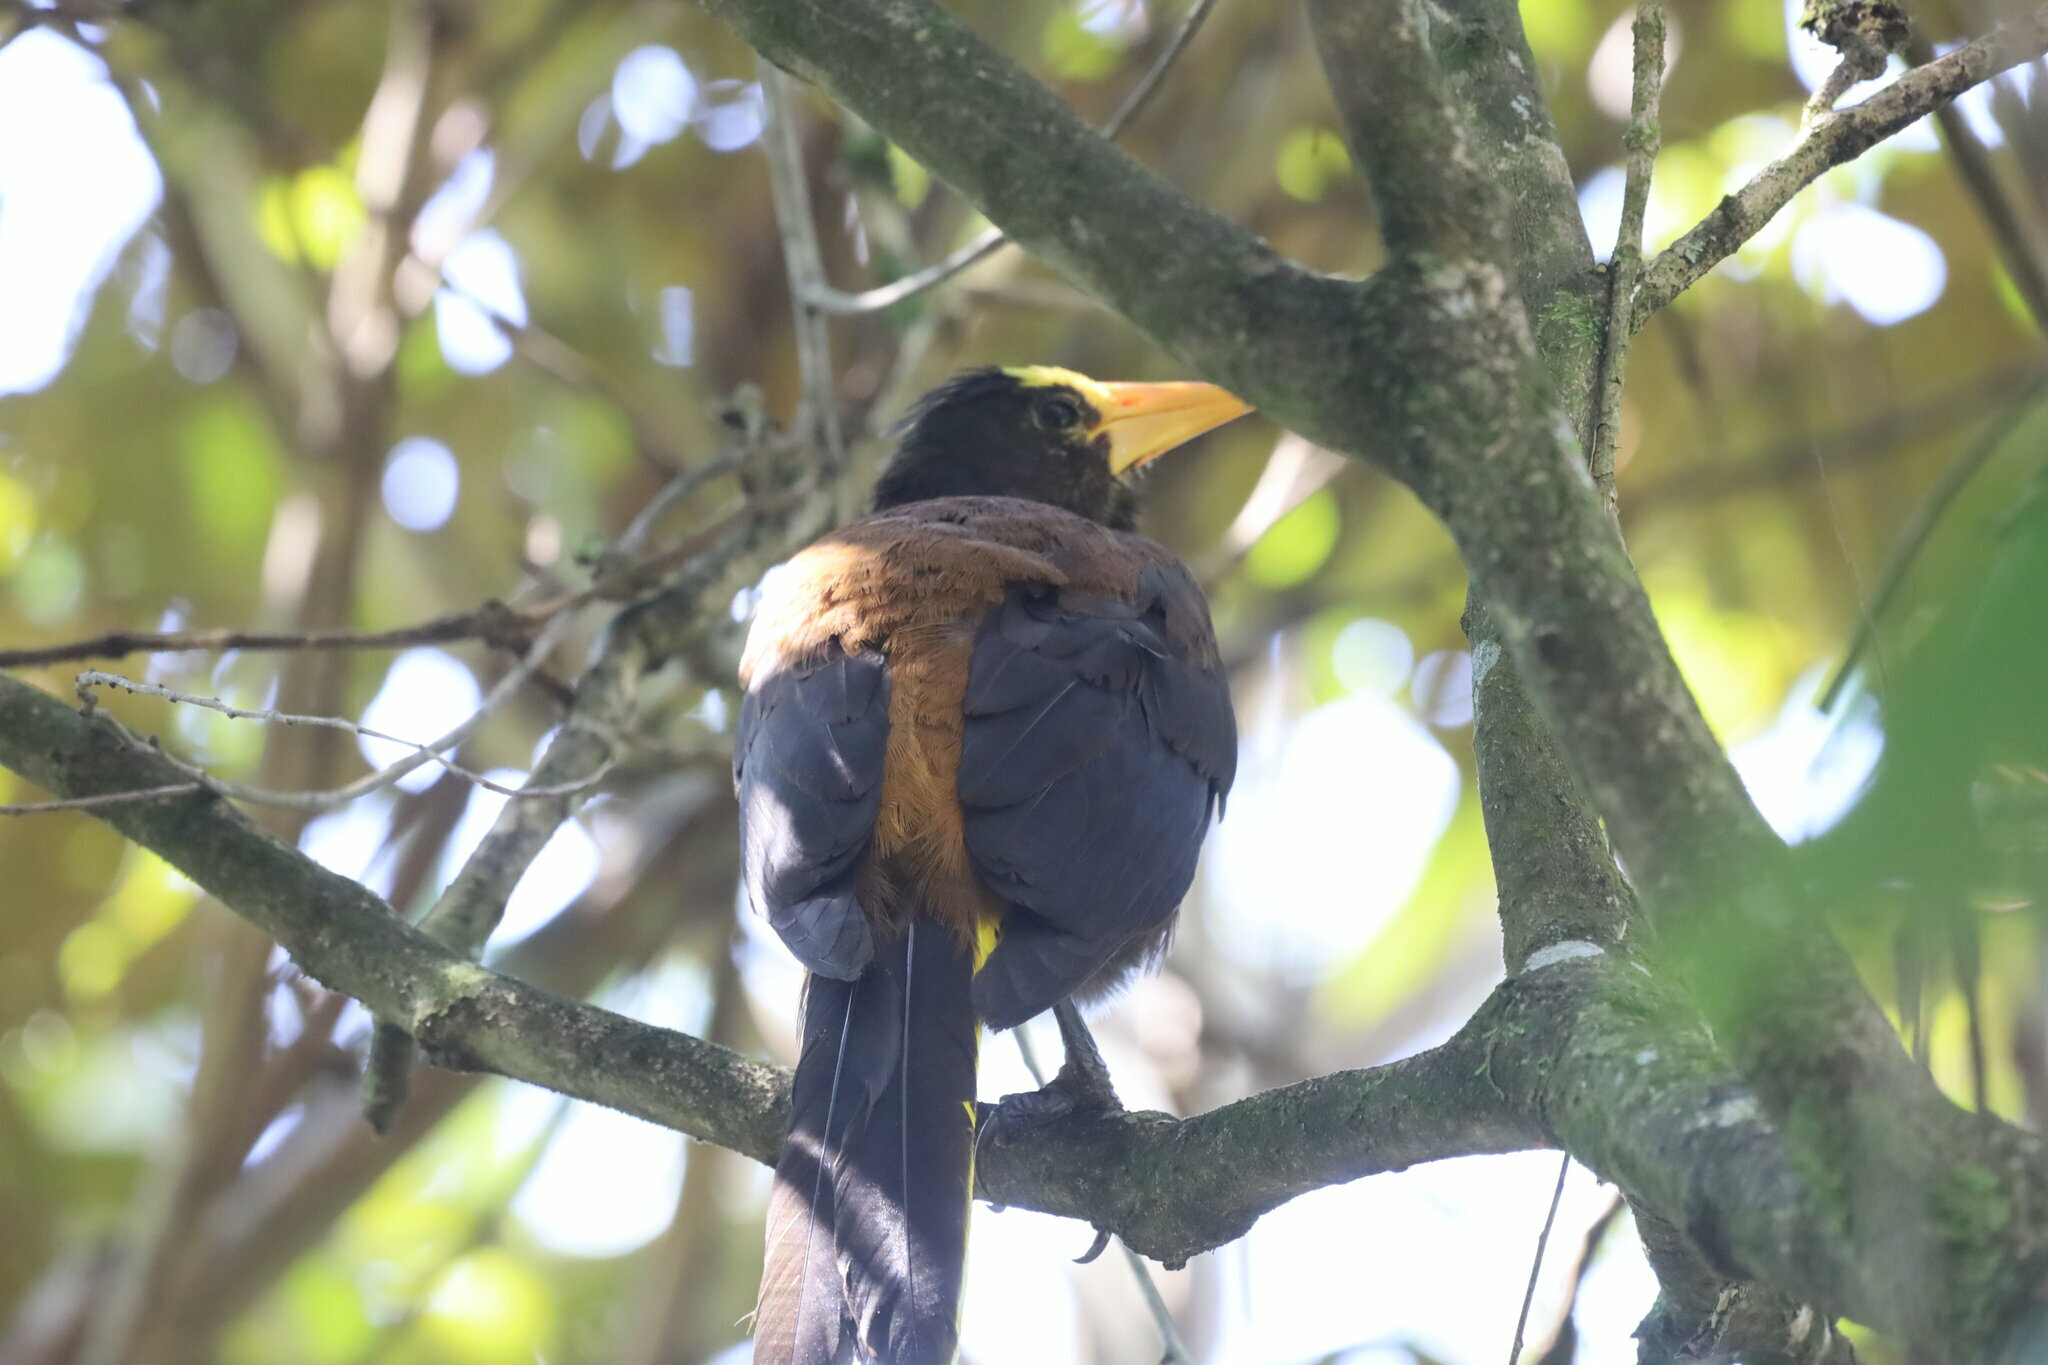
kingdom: Animalia
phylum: Chordata
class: Aves
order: Passeriformes
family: Icteridae
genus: Psarocolius
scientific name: Psarocolius angustifrons
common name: Russet-backed oropendola
